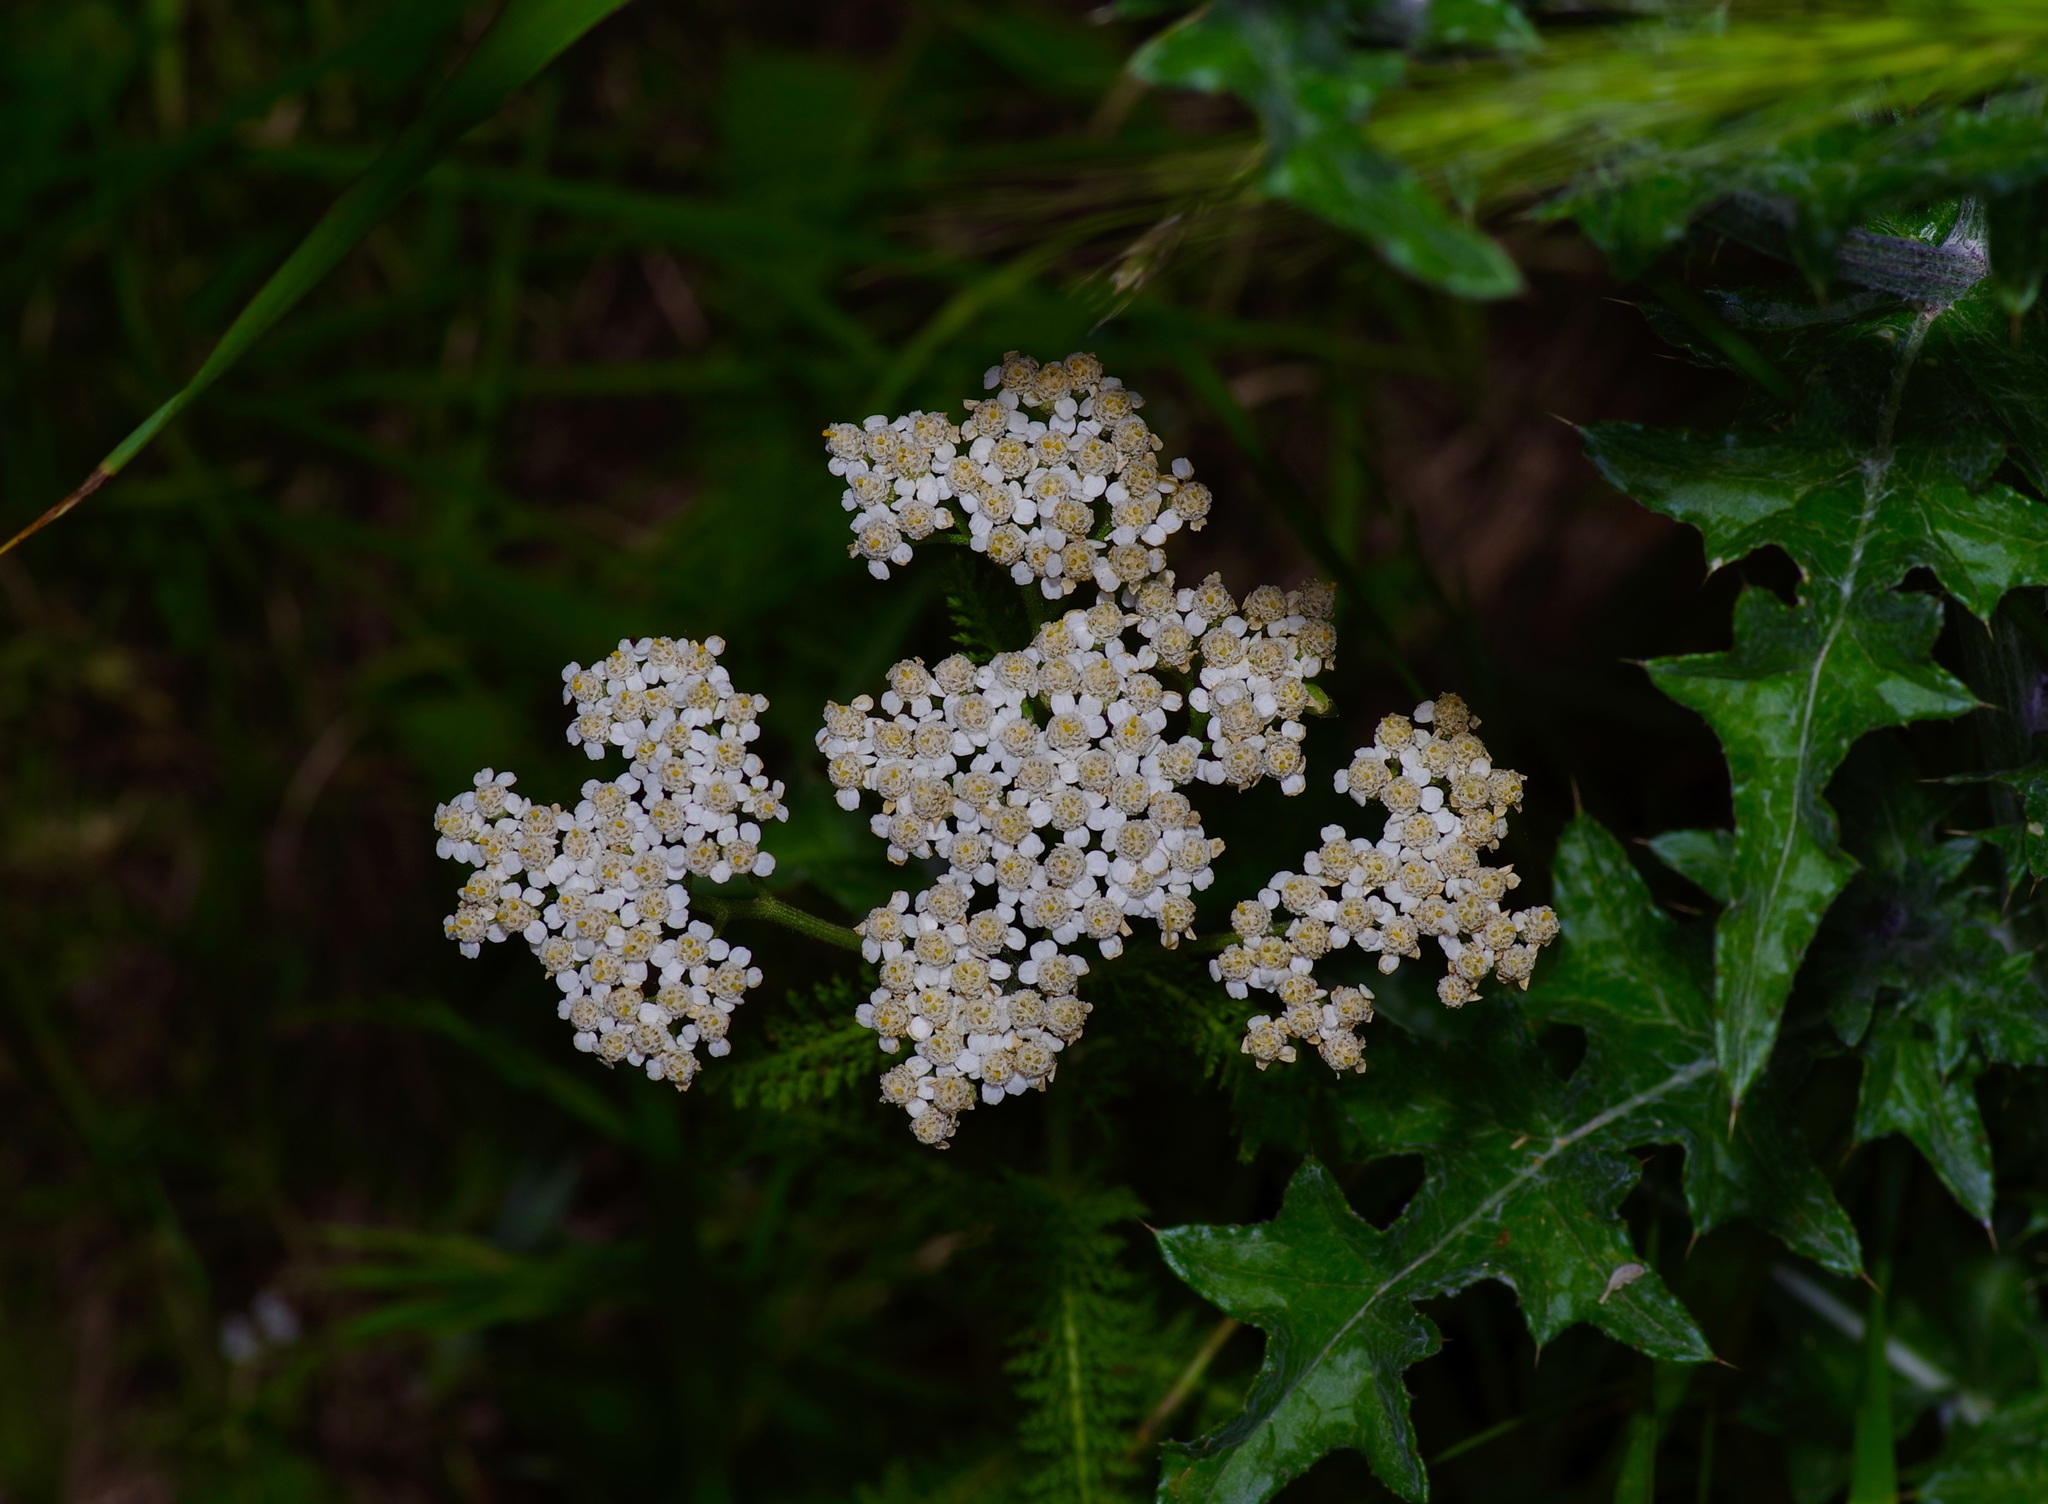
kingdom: Plantae
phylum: Tracheophyta
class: Magnoliopsida
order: Asterales
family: Asteraceae
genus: Achillea
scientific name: Achillea millefolium
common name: Yarrow
